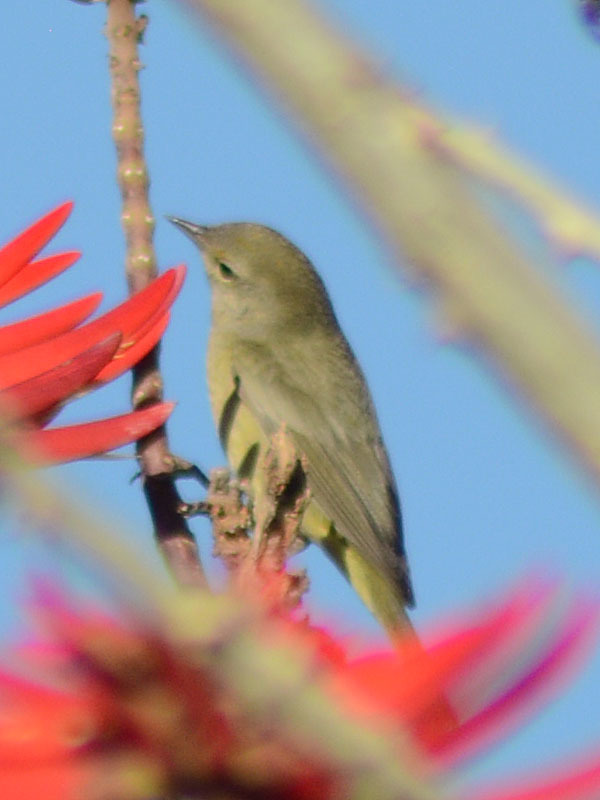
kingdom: Animalia
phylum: Chordata
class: Aves
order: Passeriformes
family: Parulidae
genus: Leiothlypis
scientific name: Leiothlypis celata
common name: Orange-crowned warbler
